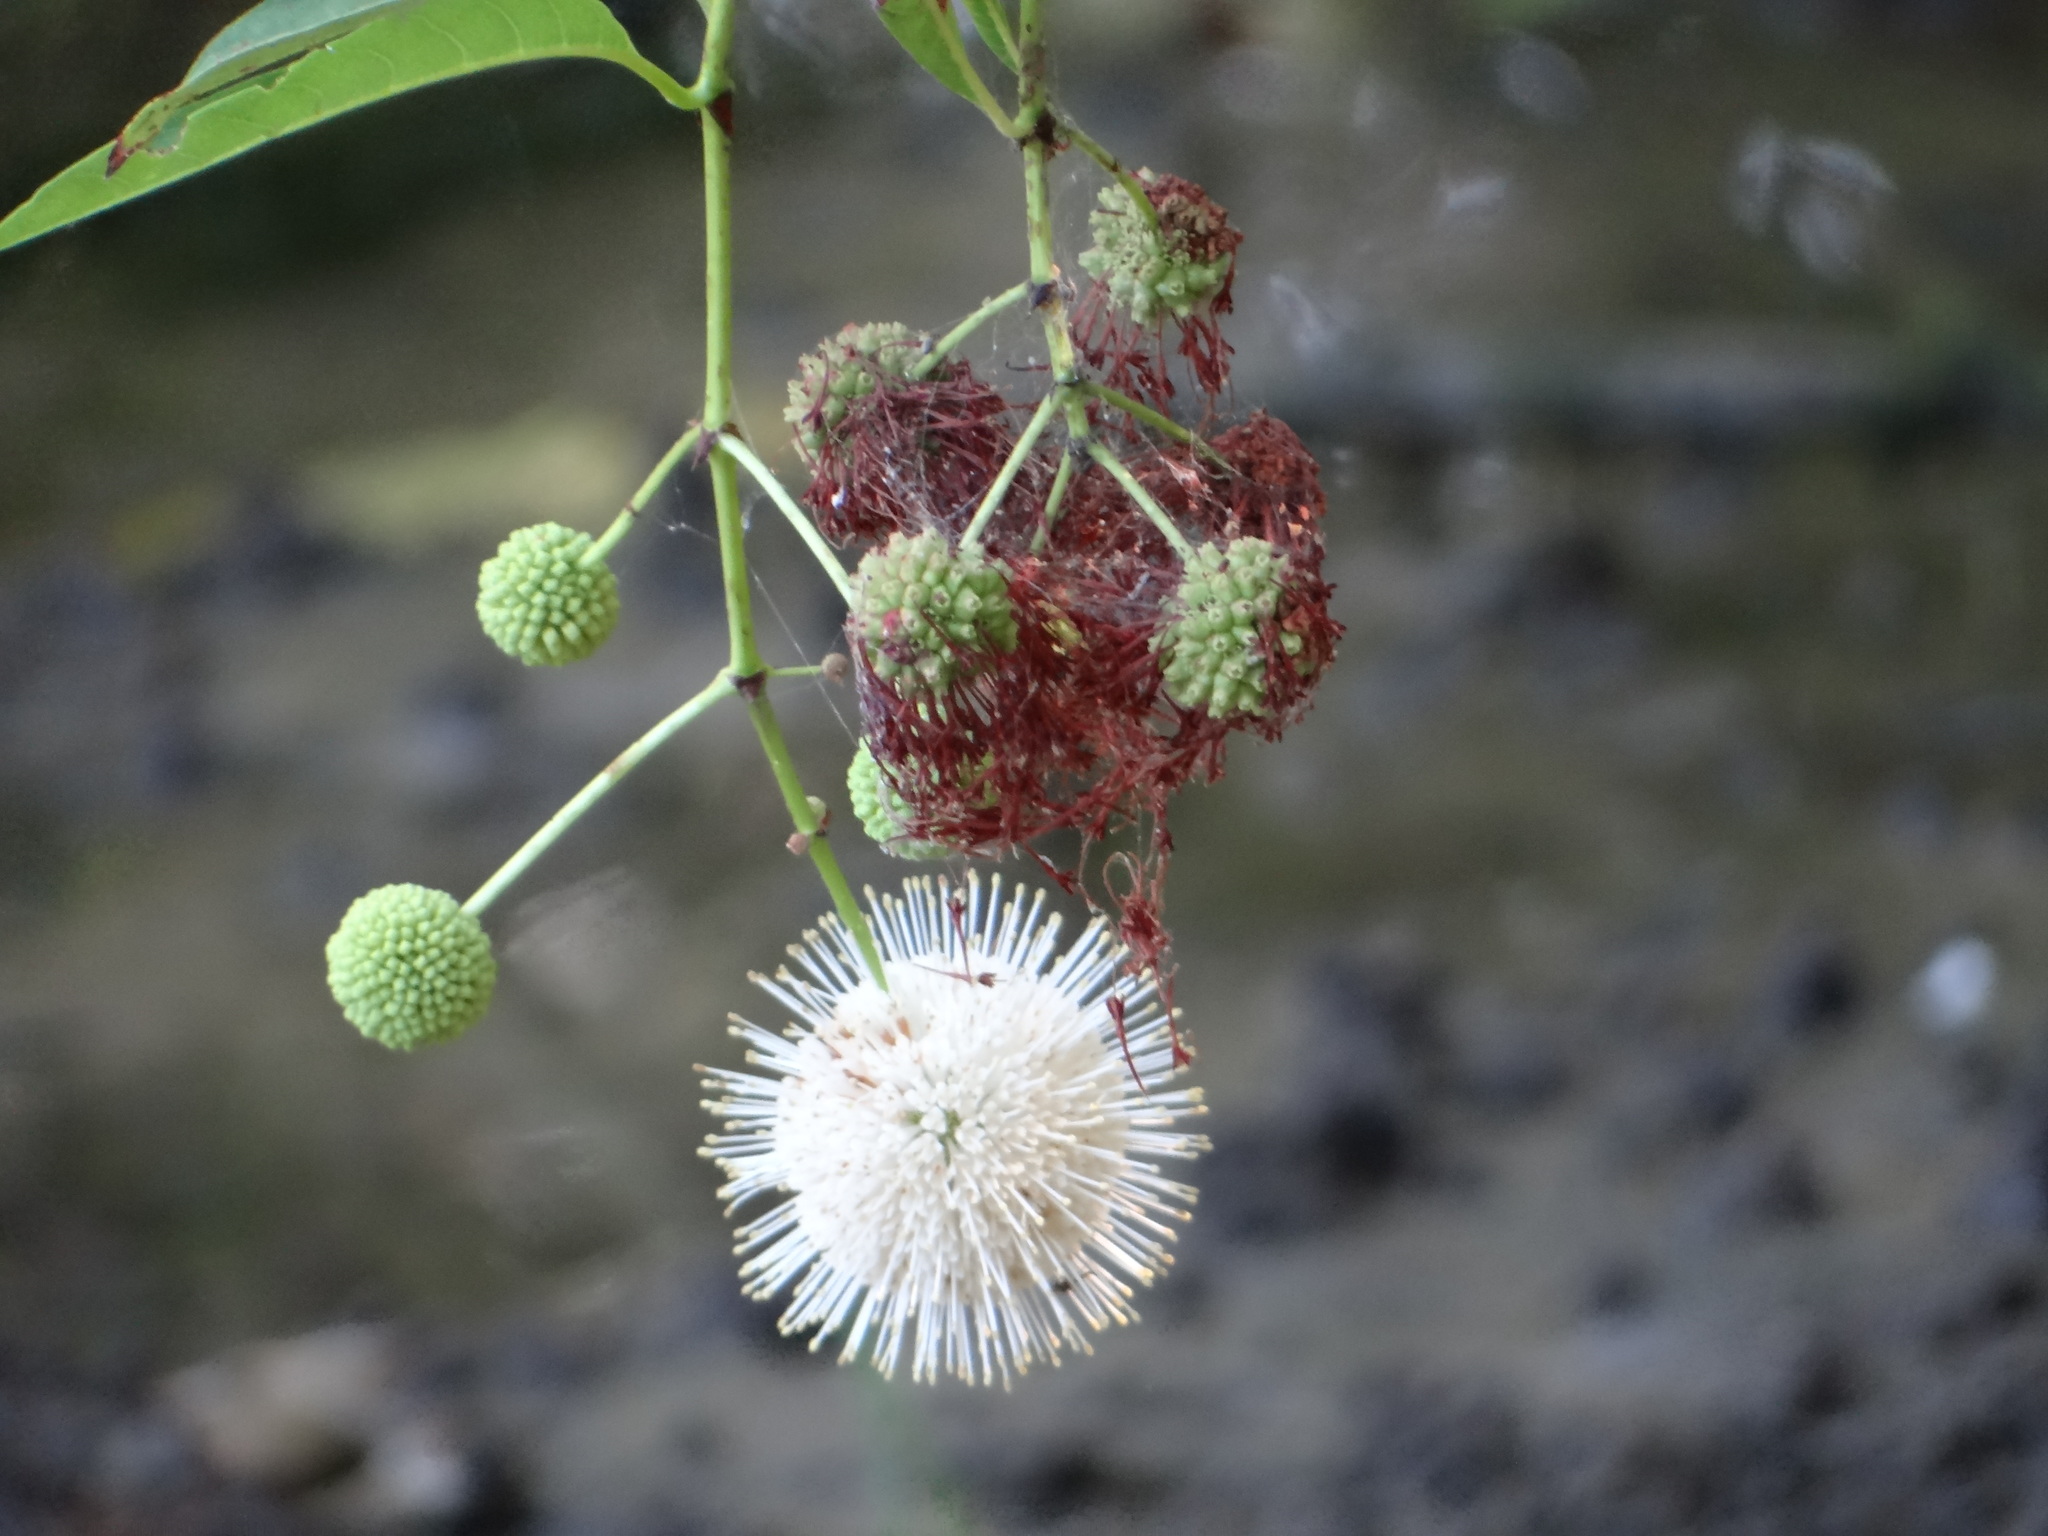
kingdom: Plantae
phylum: Tracheophyta
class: Magnoliopsida
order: Gentianales
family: Rubiaceae
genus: Cephalanthus
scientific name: Cephalanthus occidentalis
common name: Button-willow
